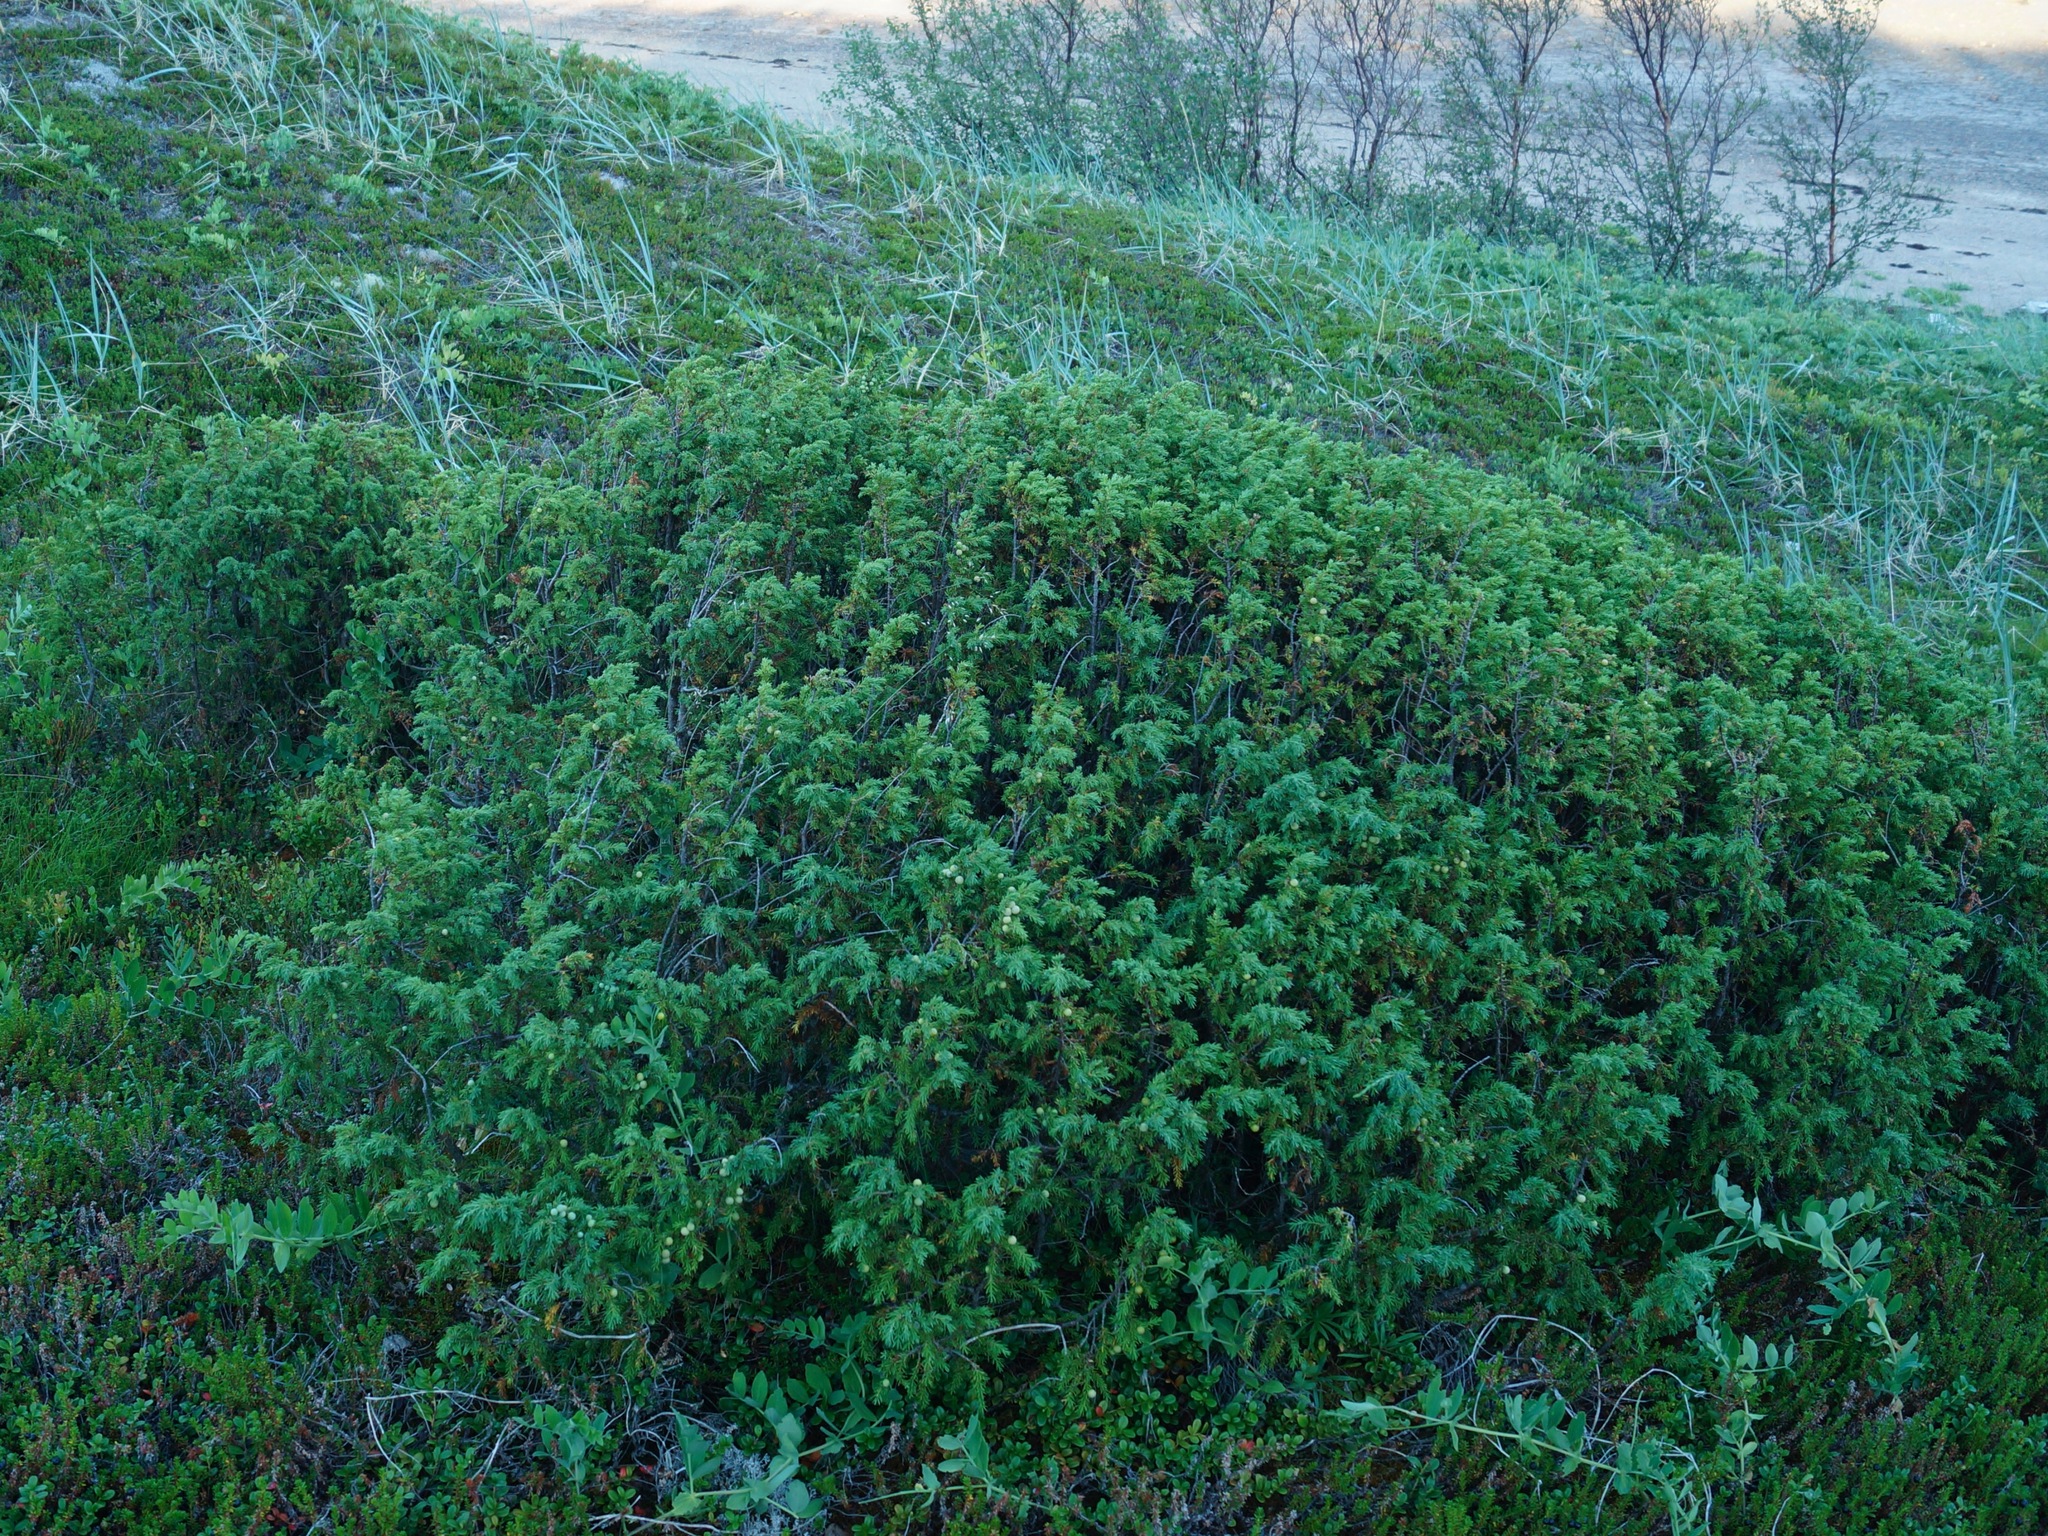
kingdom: Plantae
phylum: Tracheophyta
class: Pinopsida
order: Pinales
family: Cupressaceae
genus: Juniperus
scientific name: Juniperus communis
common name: Common juniper
